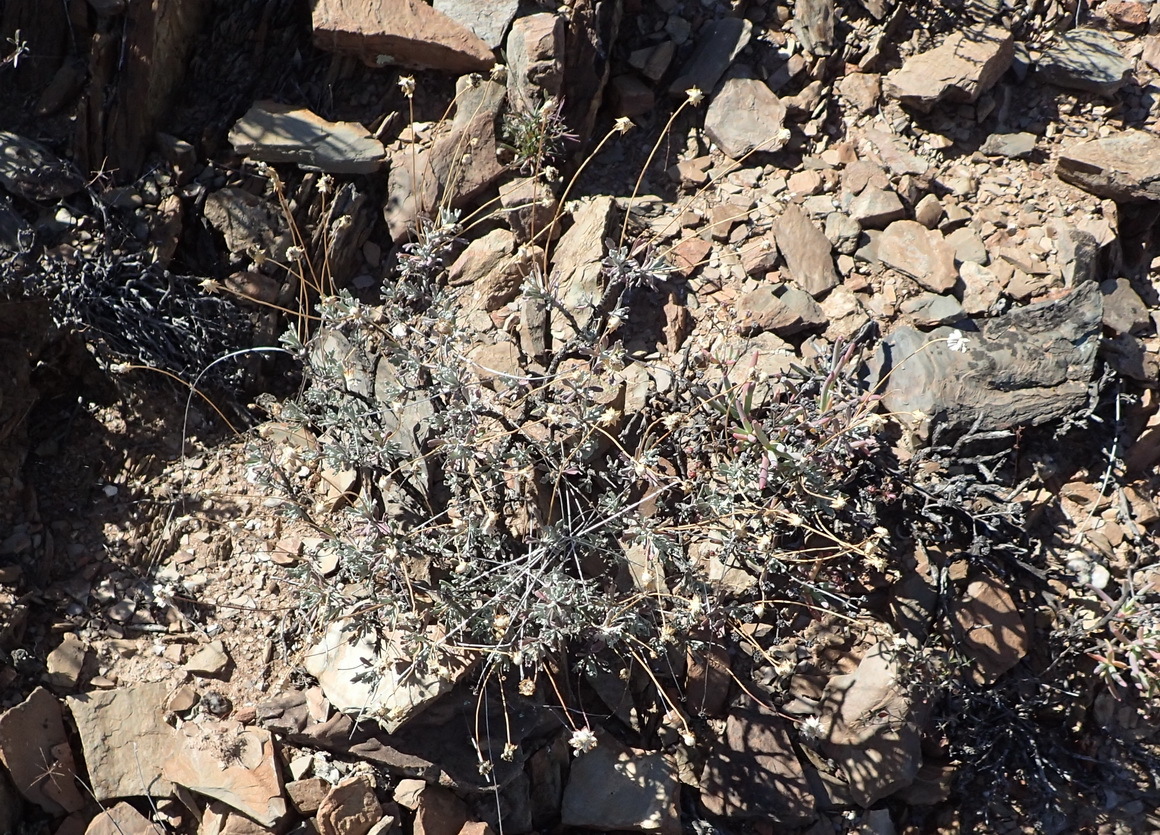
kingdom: Plantae
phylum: Tracheophyta
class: Magnoliopsida
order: Asterales
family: Asteraceae
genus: Euryops
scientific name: Euryops dregeanus
